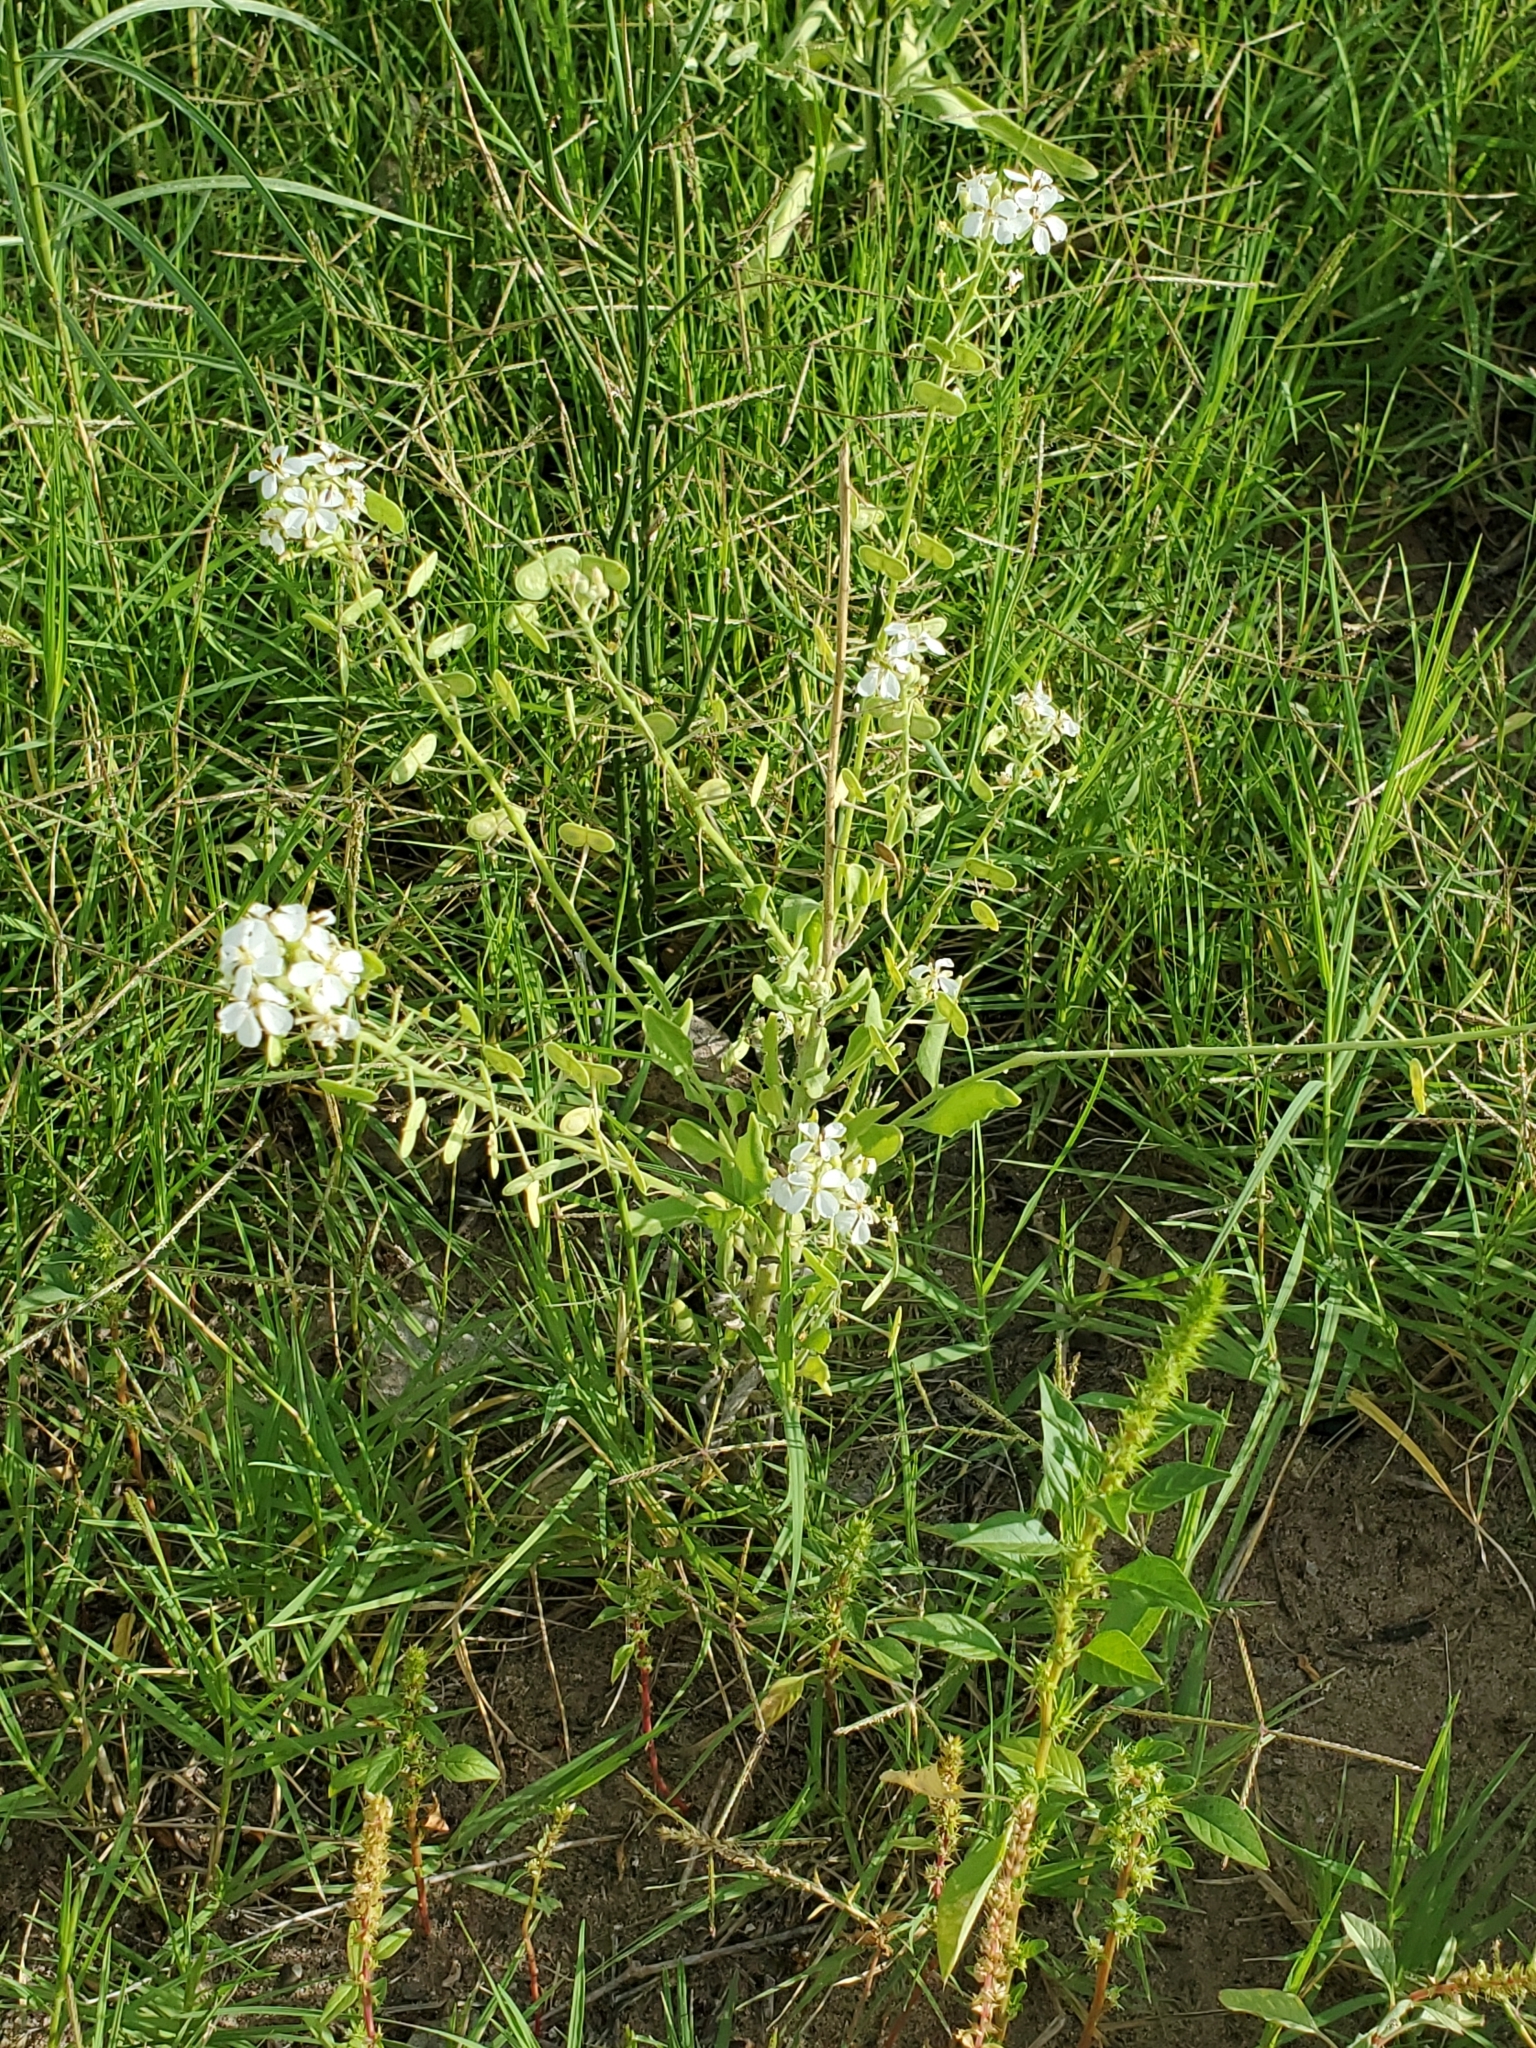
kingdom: Plantae
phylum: Tracheophyta
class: Magnoliopsida
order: Brassicales
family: Brassicaceae
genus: Dimorphocarpa
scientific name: Dimorphocarpa wislizenii
